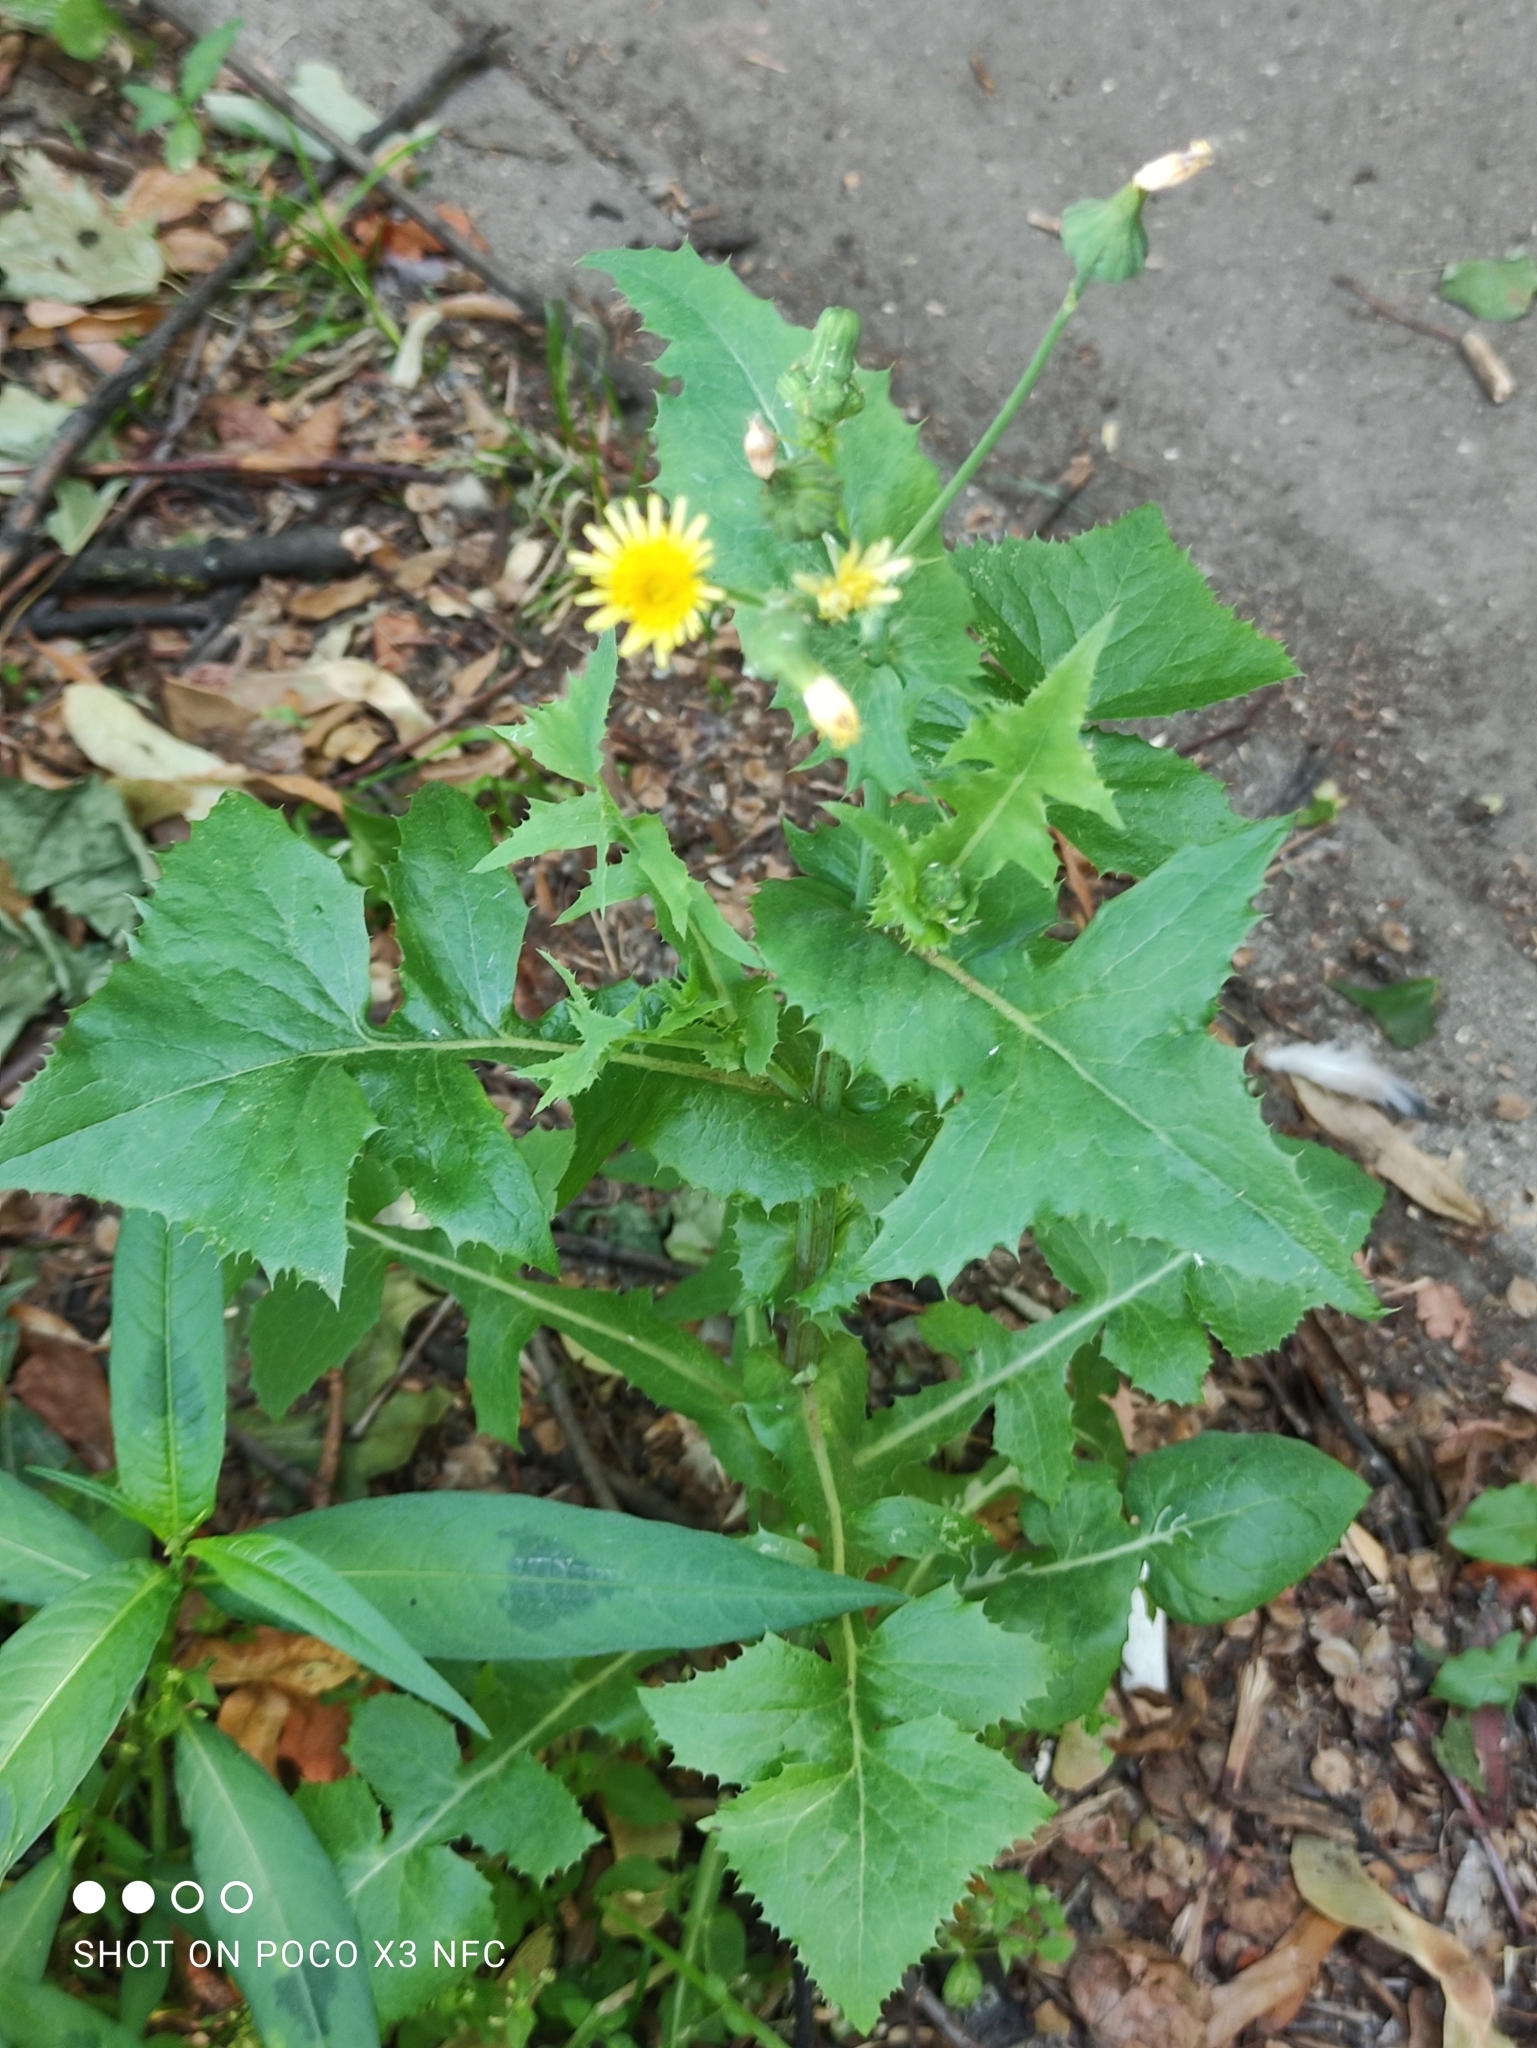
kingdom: Plantae
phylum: Tracheophyta
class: Magnoliopsida
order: Asterales
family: Asteraceae
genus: Sonchus
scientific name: Sonchus oleraceus
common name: Common sowthistle
